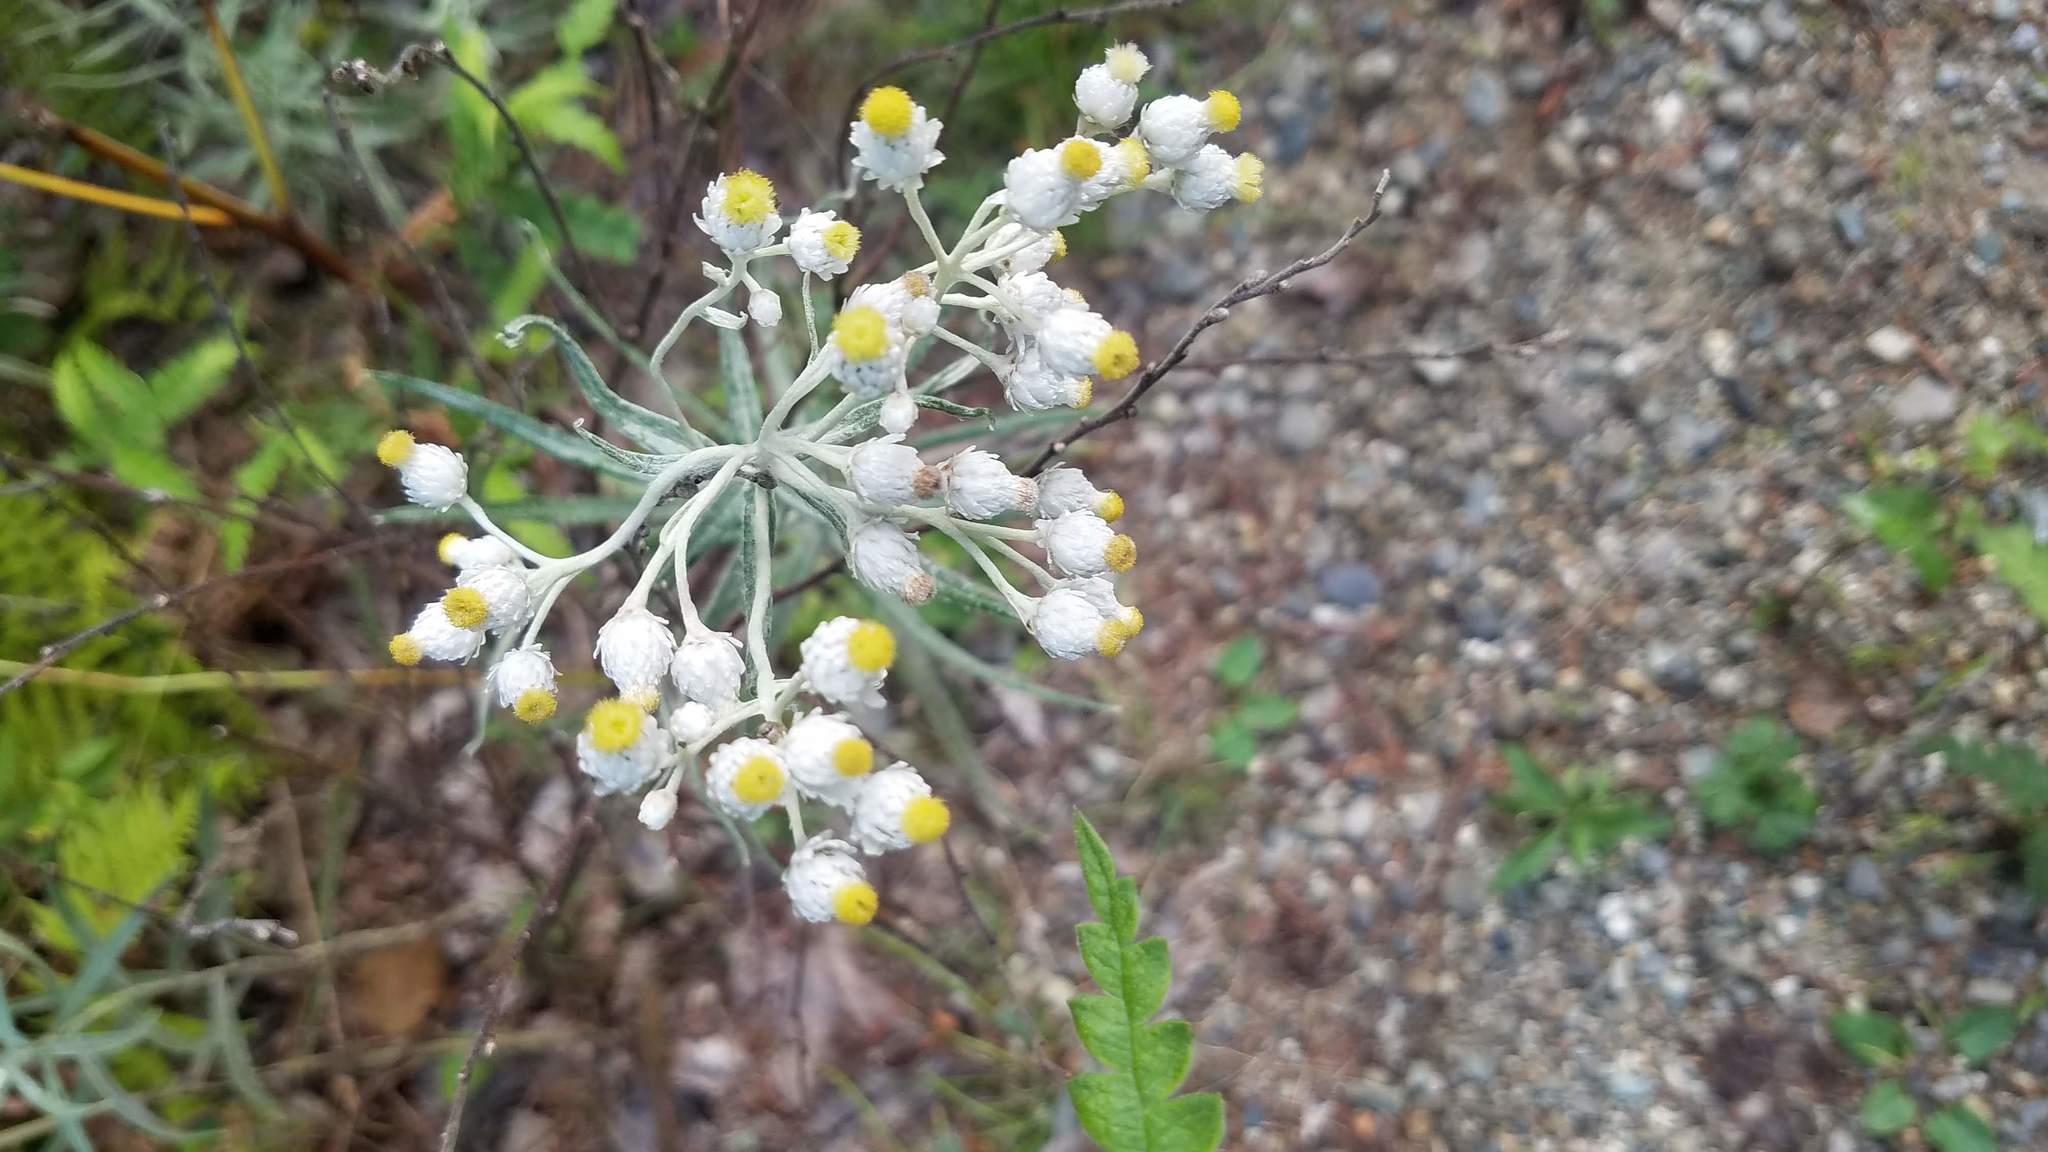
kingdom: Plantae
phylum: Tracheophyta
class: Magnoliopsida
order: Asterales
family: Asteraceae
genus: Anaphalis
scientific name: Anaphalis margaritacea
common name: Pearly everlasting
